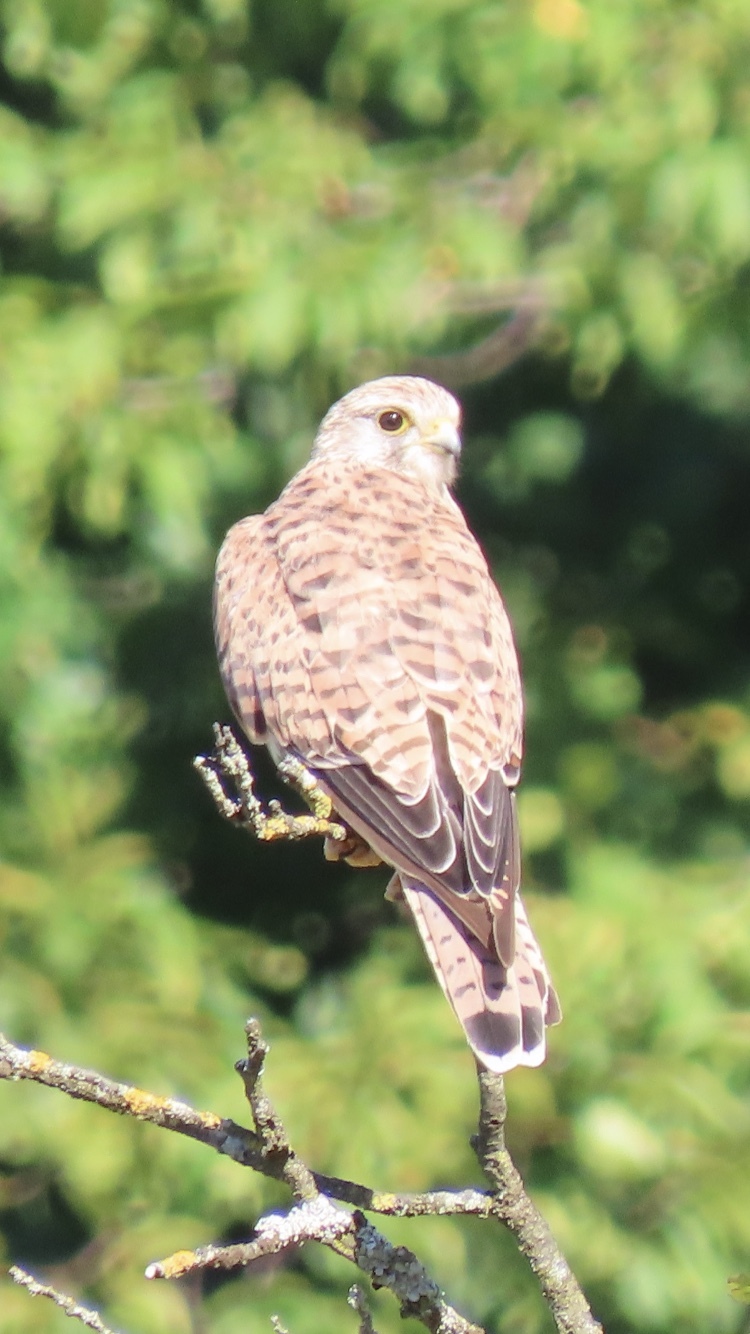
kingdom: Animalia
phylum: Chordata
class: Aves
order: Falconiformes
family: Falconidae
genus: Falco
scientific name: Falco tinnunculus
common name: Common kestrel
